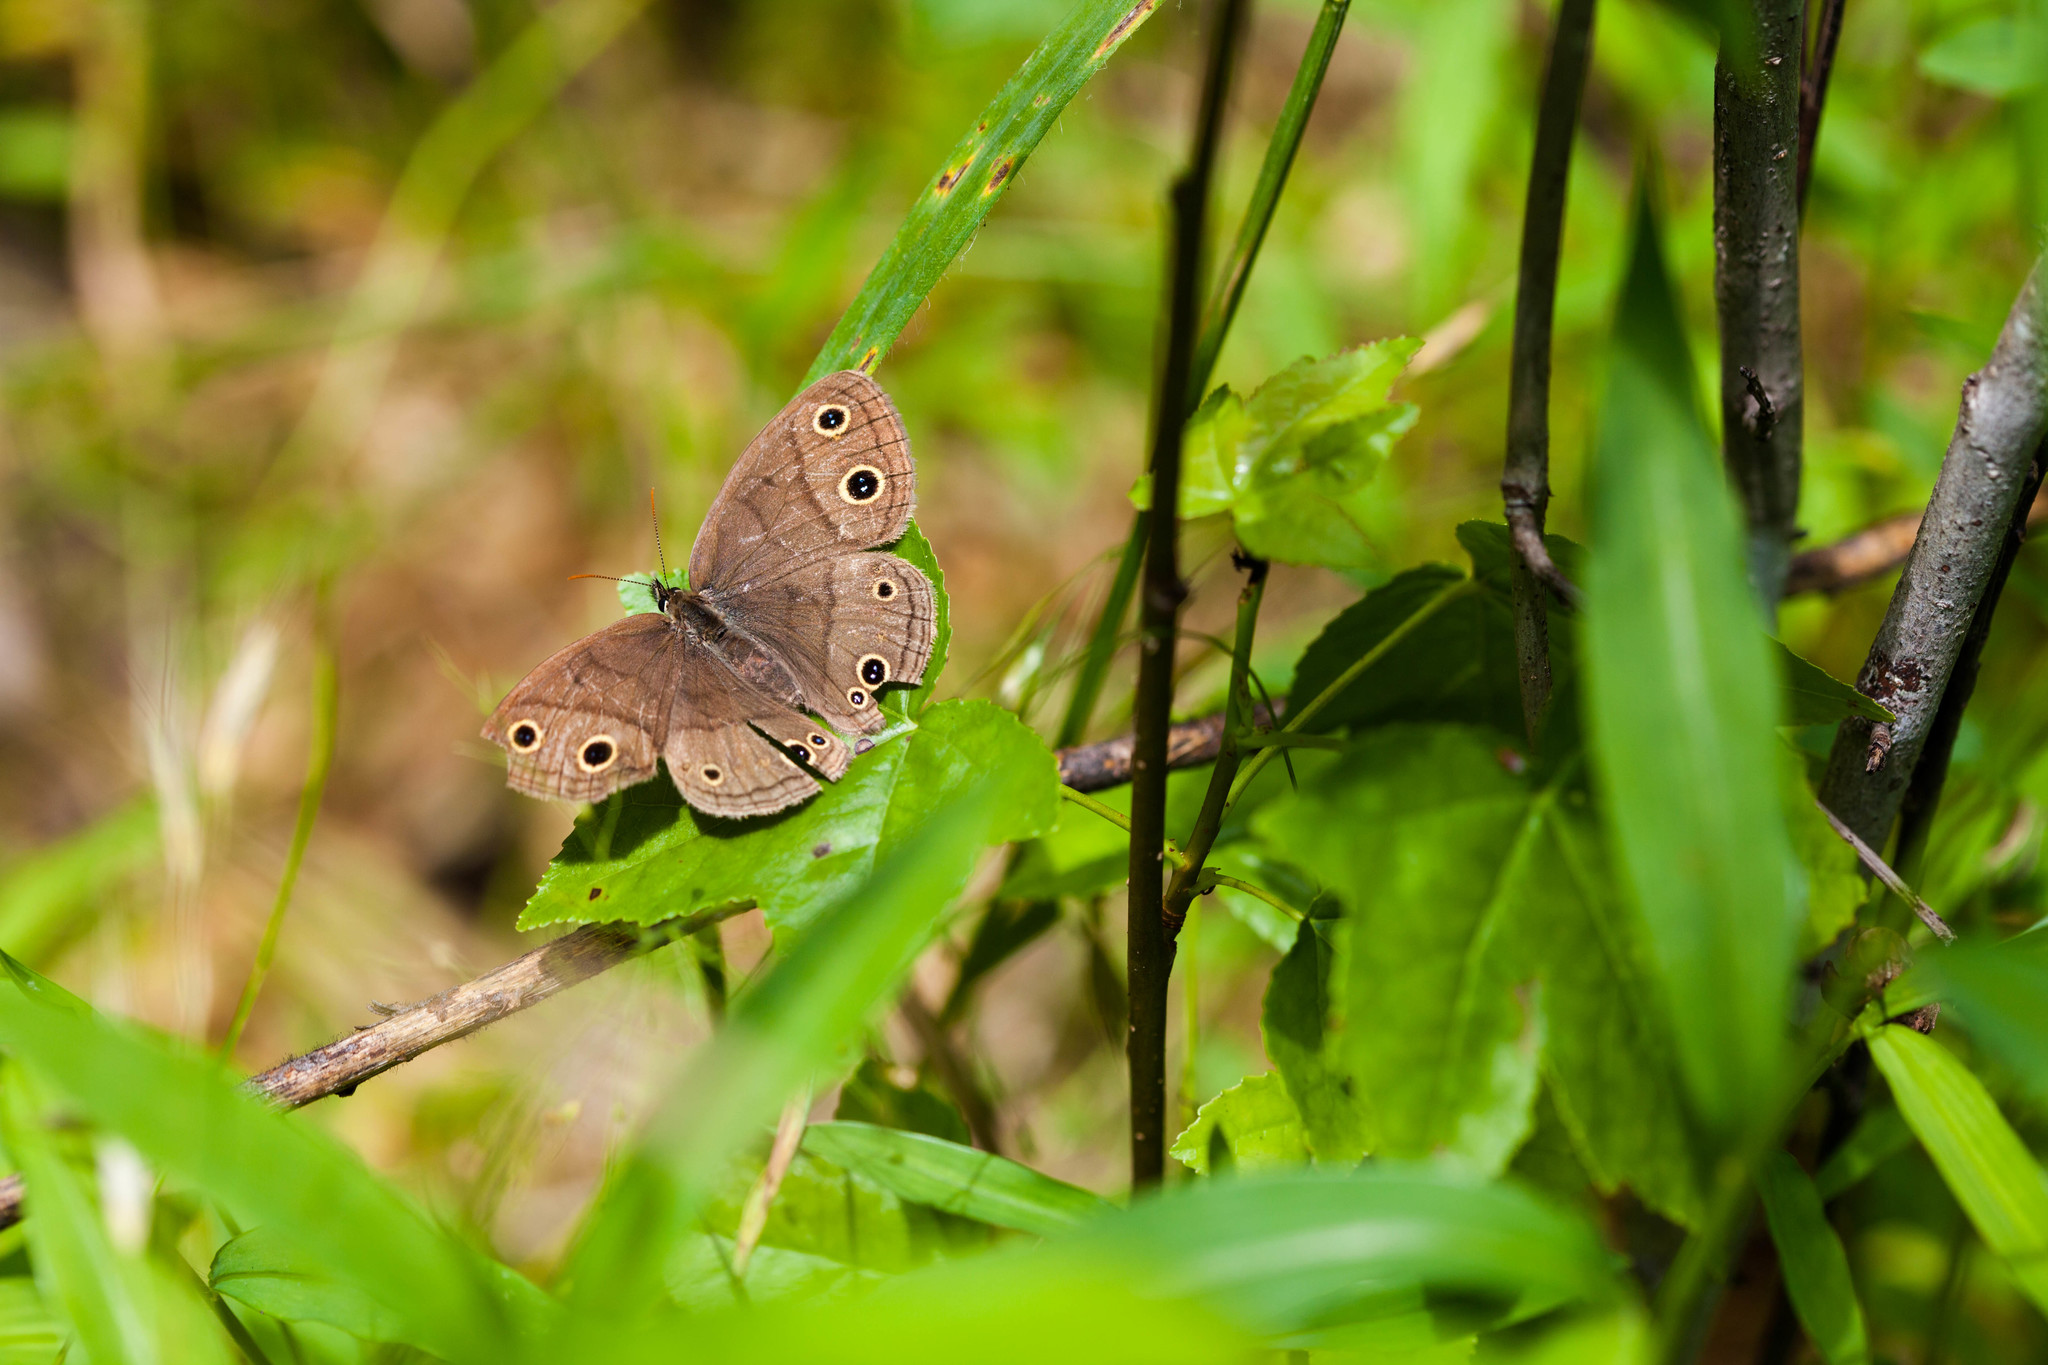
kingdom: Animalia
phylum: Arthropoda
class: Insecta
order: Lepidoptera
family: Nymphalidae
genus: Euptychia
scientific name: Euptychia cymela
